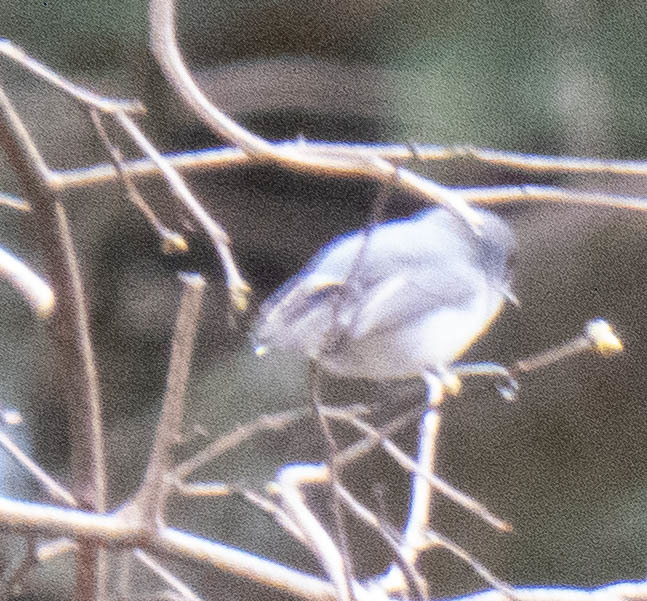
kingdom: Animalia
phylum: Chordata
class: Aves
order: Passeriformes
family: Polioptilidae
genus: Polioptila
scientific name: Polioptila caerulea
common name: Blue-gray gnatcatcher
